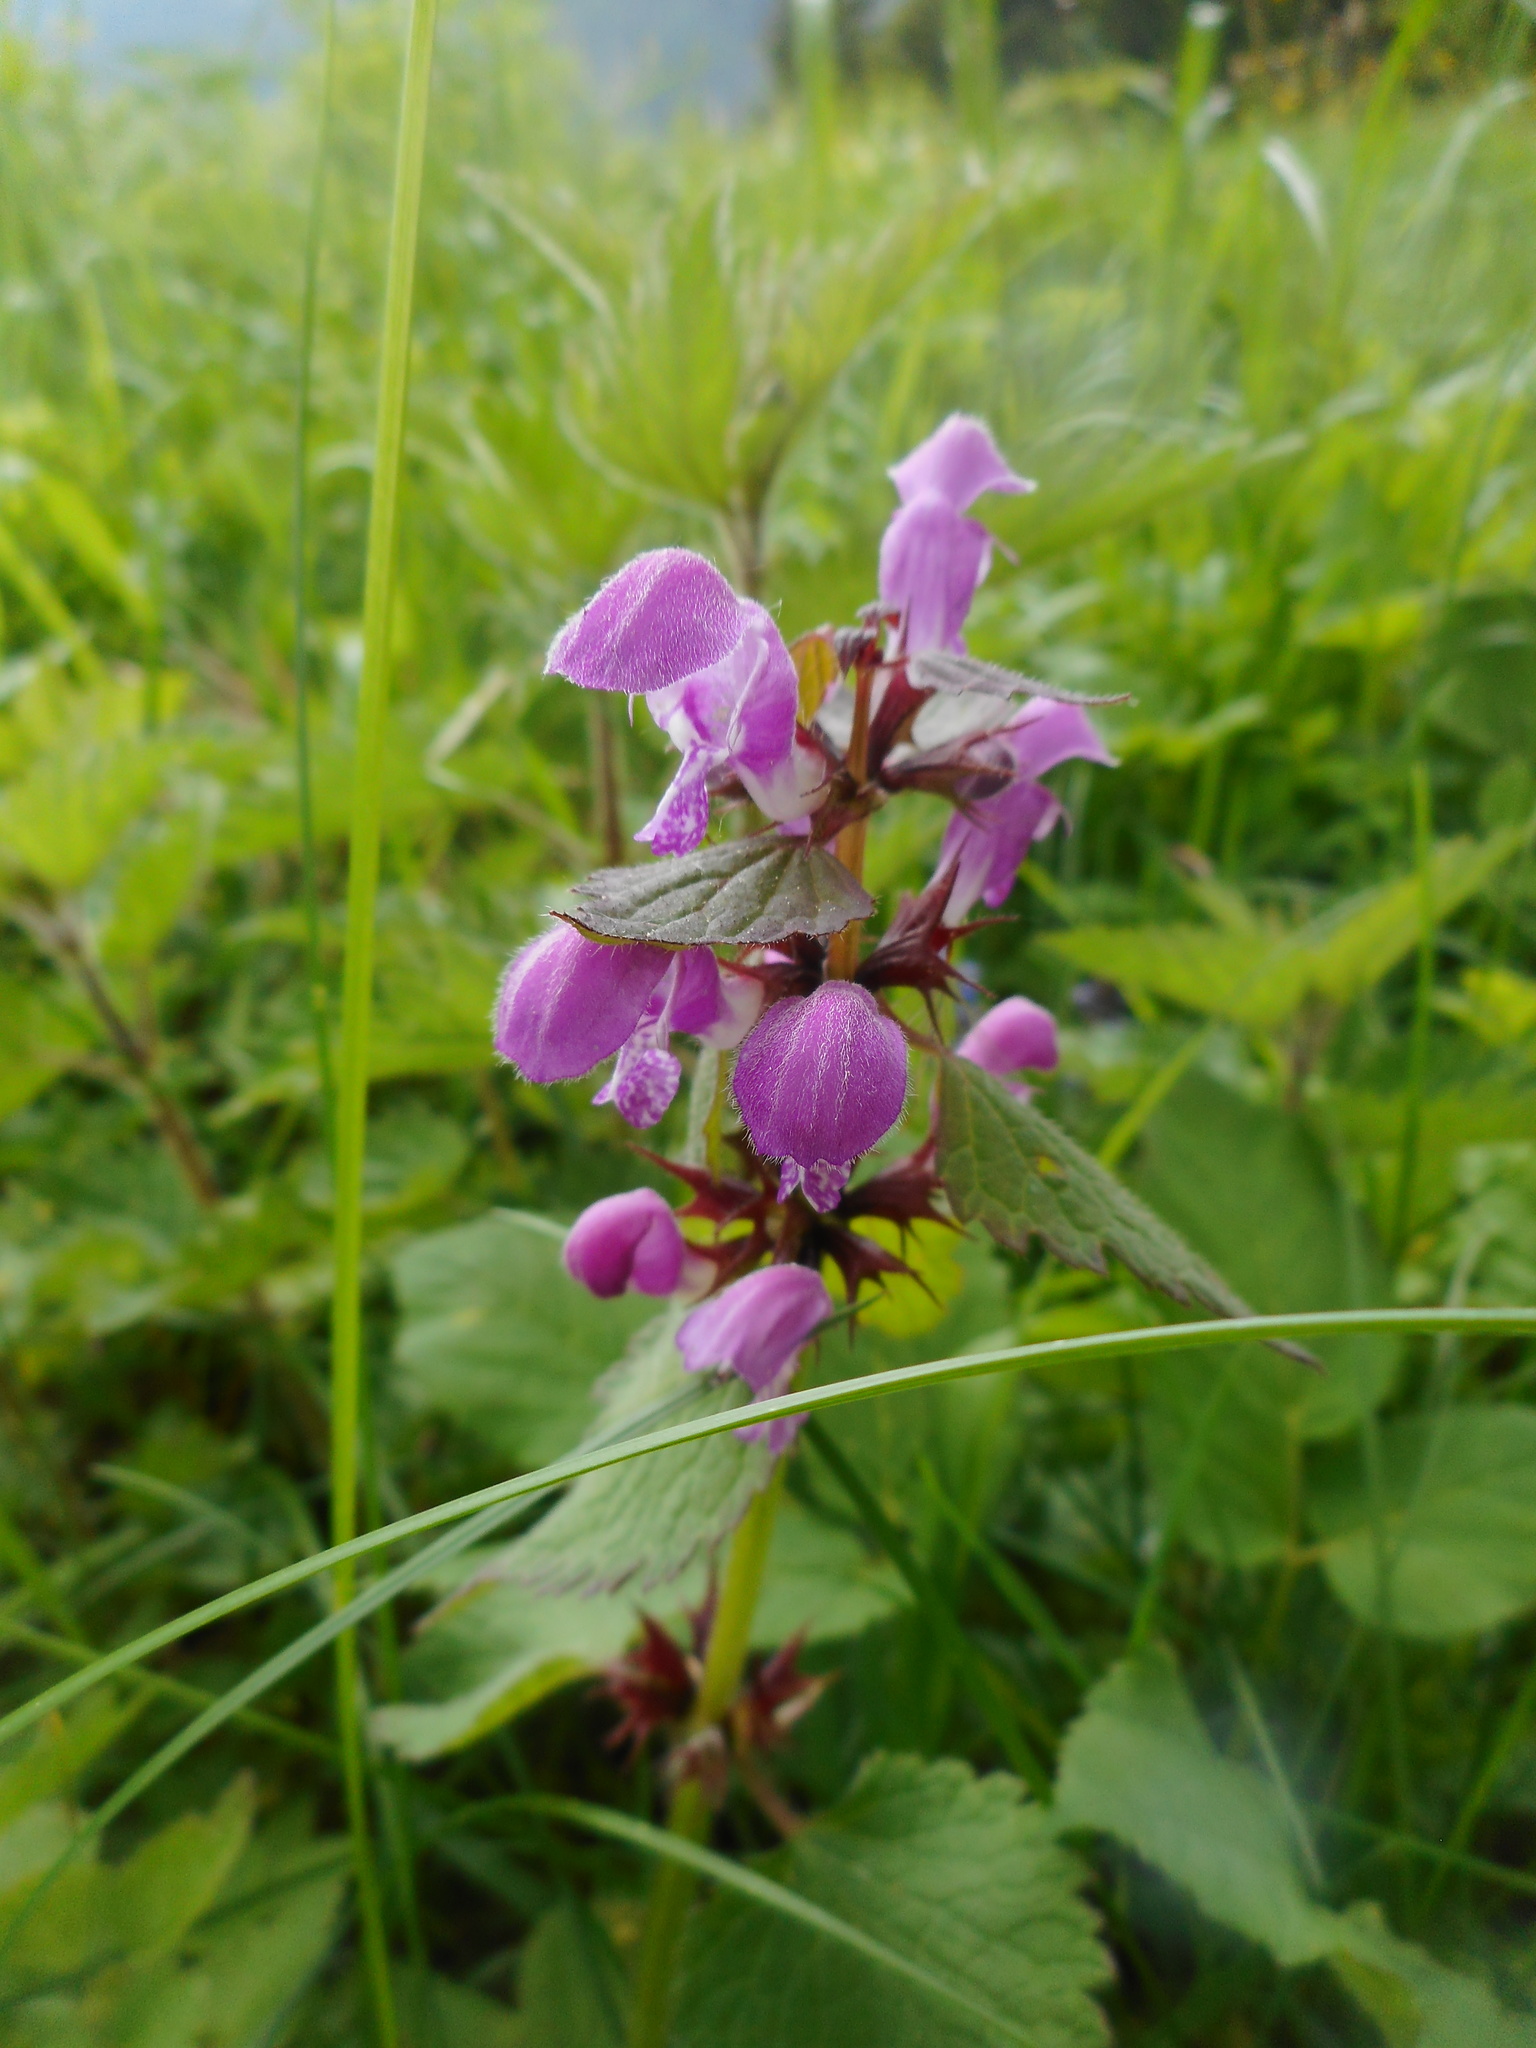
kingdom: Plantae
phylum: Tracheophyta
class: Magnoliopsida
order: Lamiales
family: Lamiaceae
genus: Lamium
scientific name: Lamium maculatum
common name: Spotted dead-nettle
